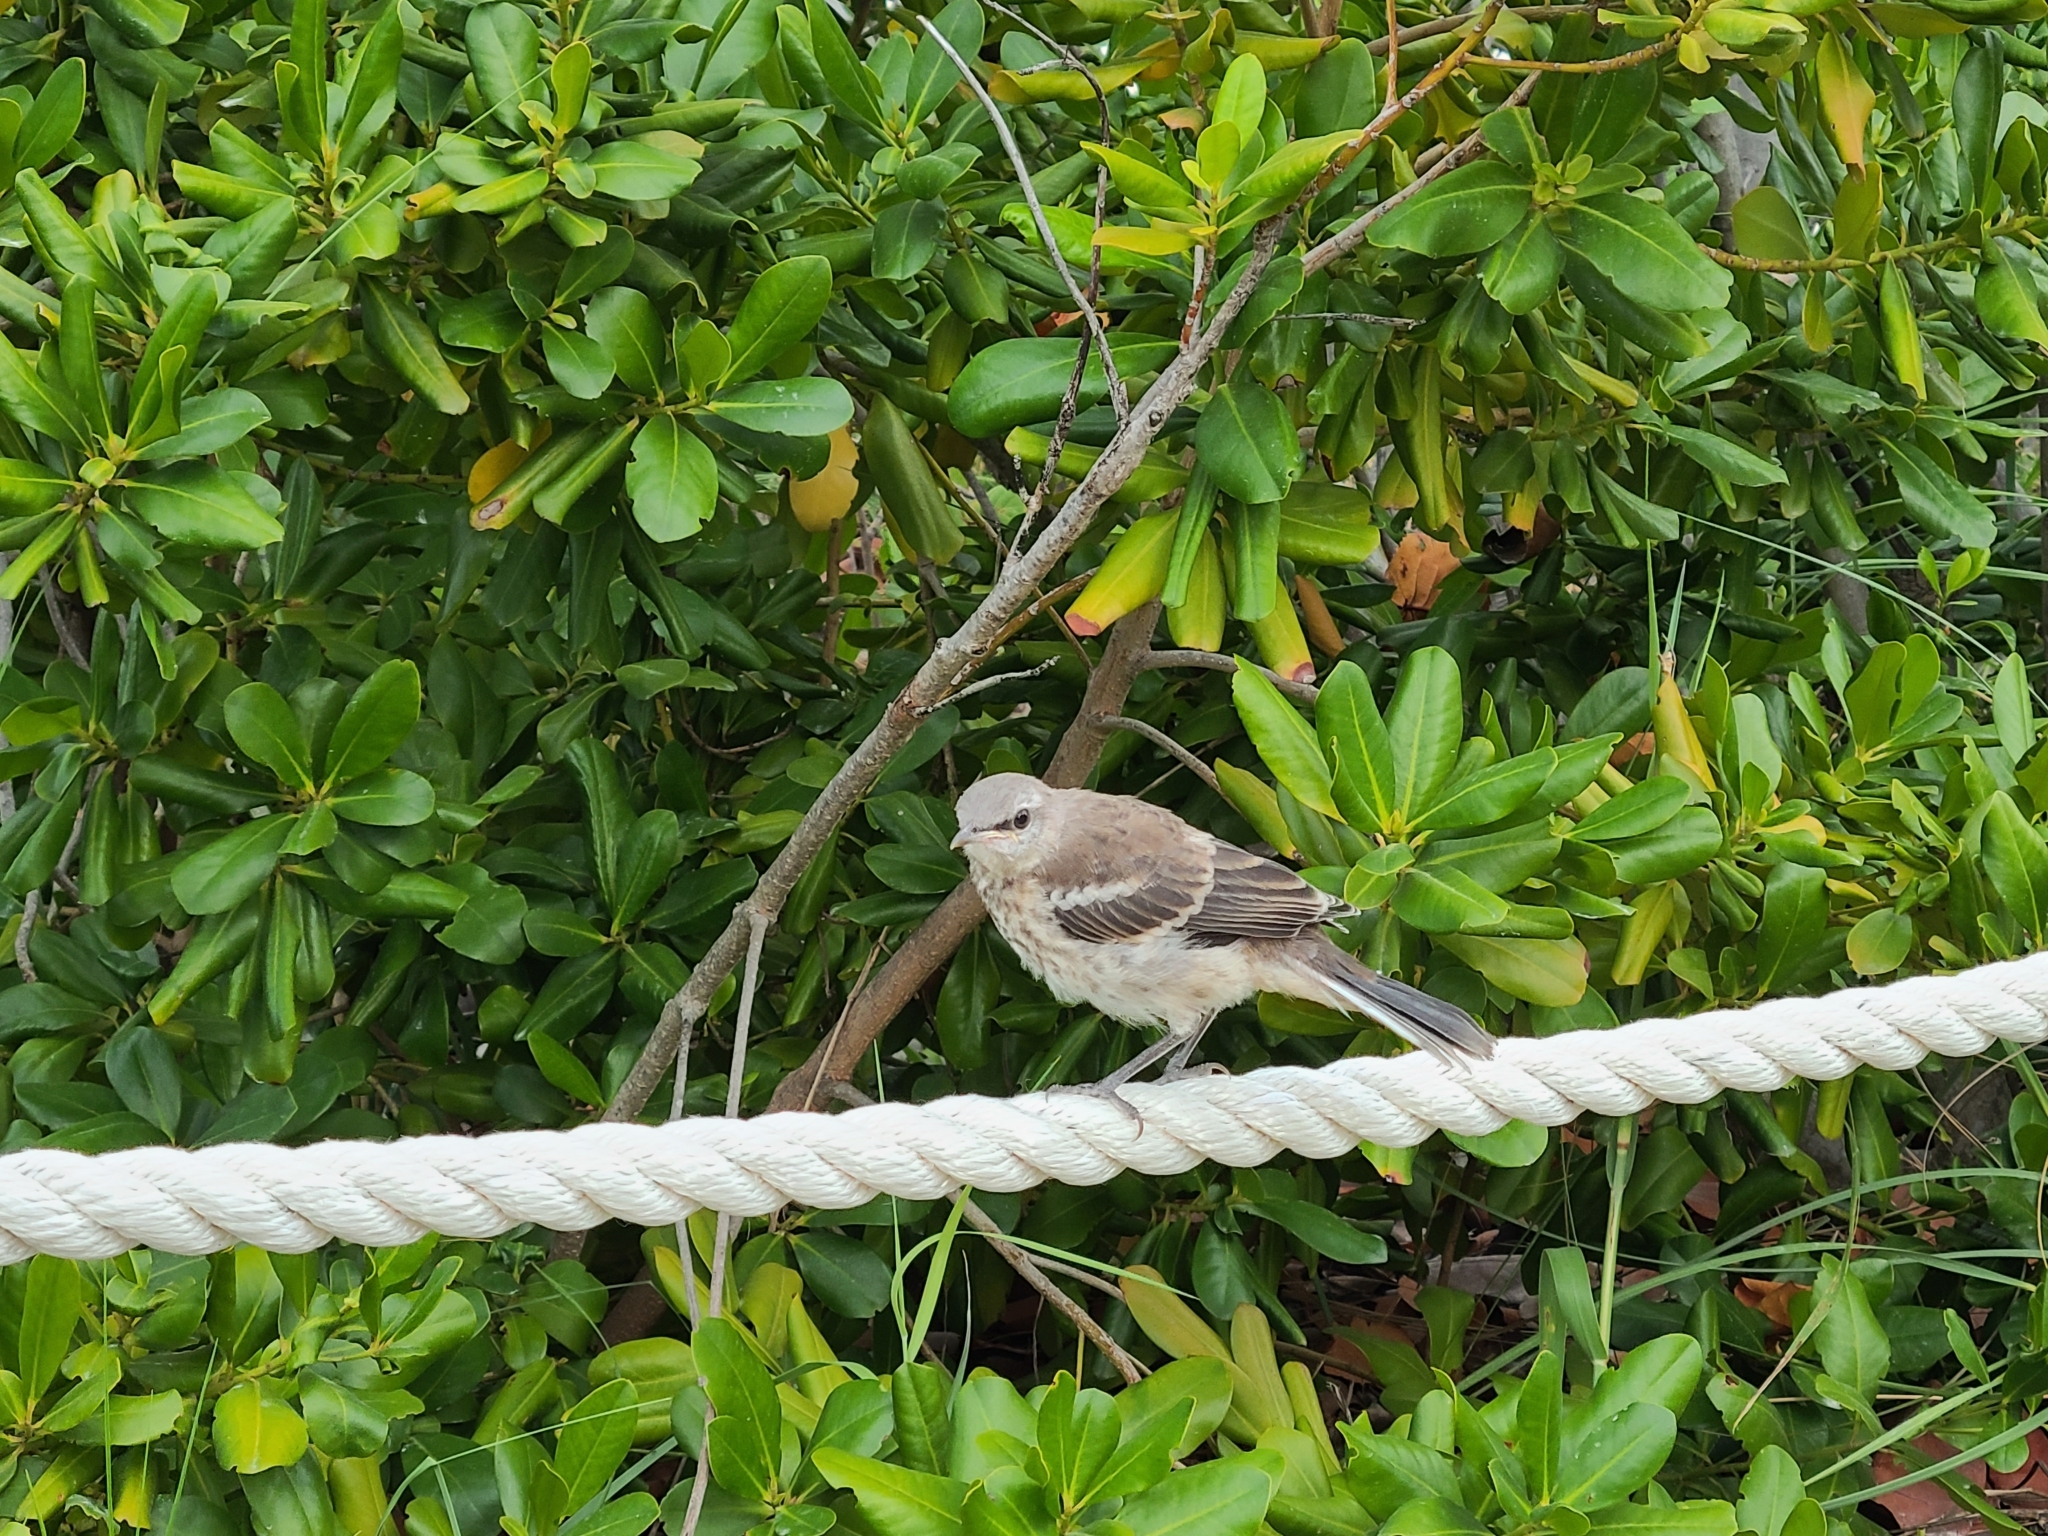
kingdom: Animalia
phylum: Chordata
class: Aves
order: Passeriformes
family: Mimidae
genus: Mimus
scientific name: Mimus polyglottos
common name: Northern mockingbird
